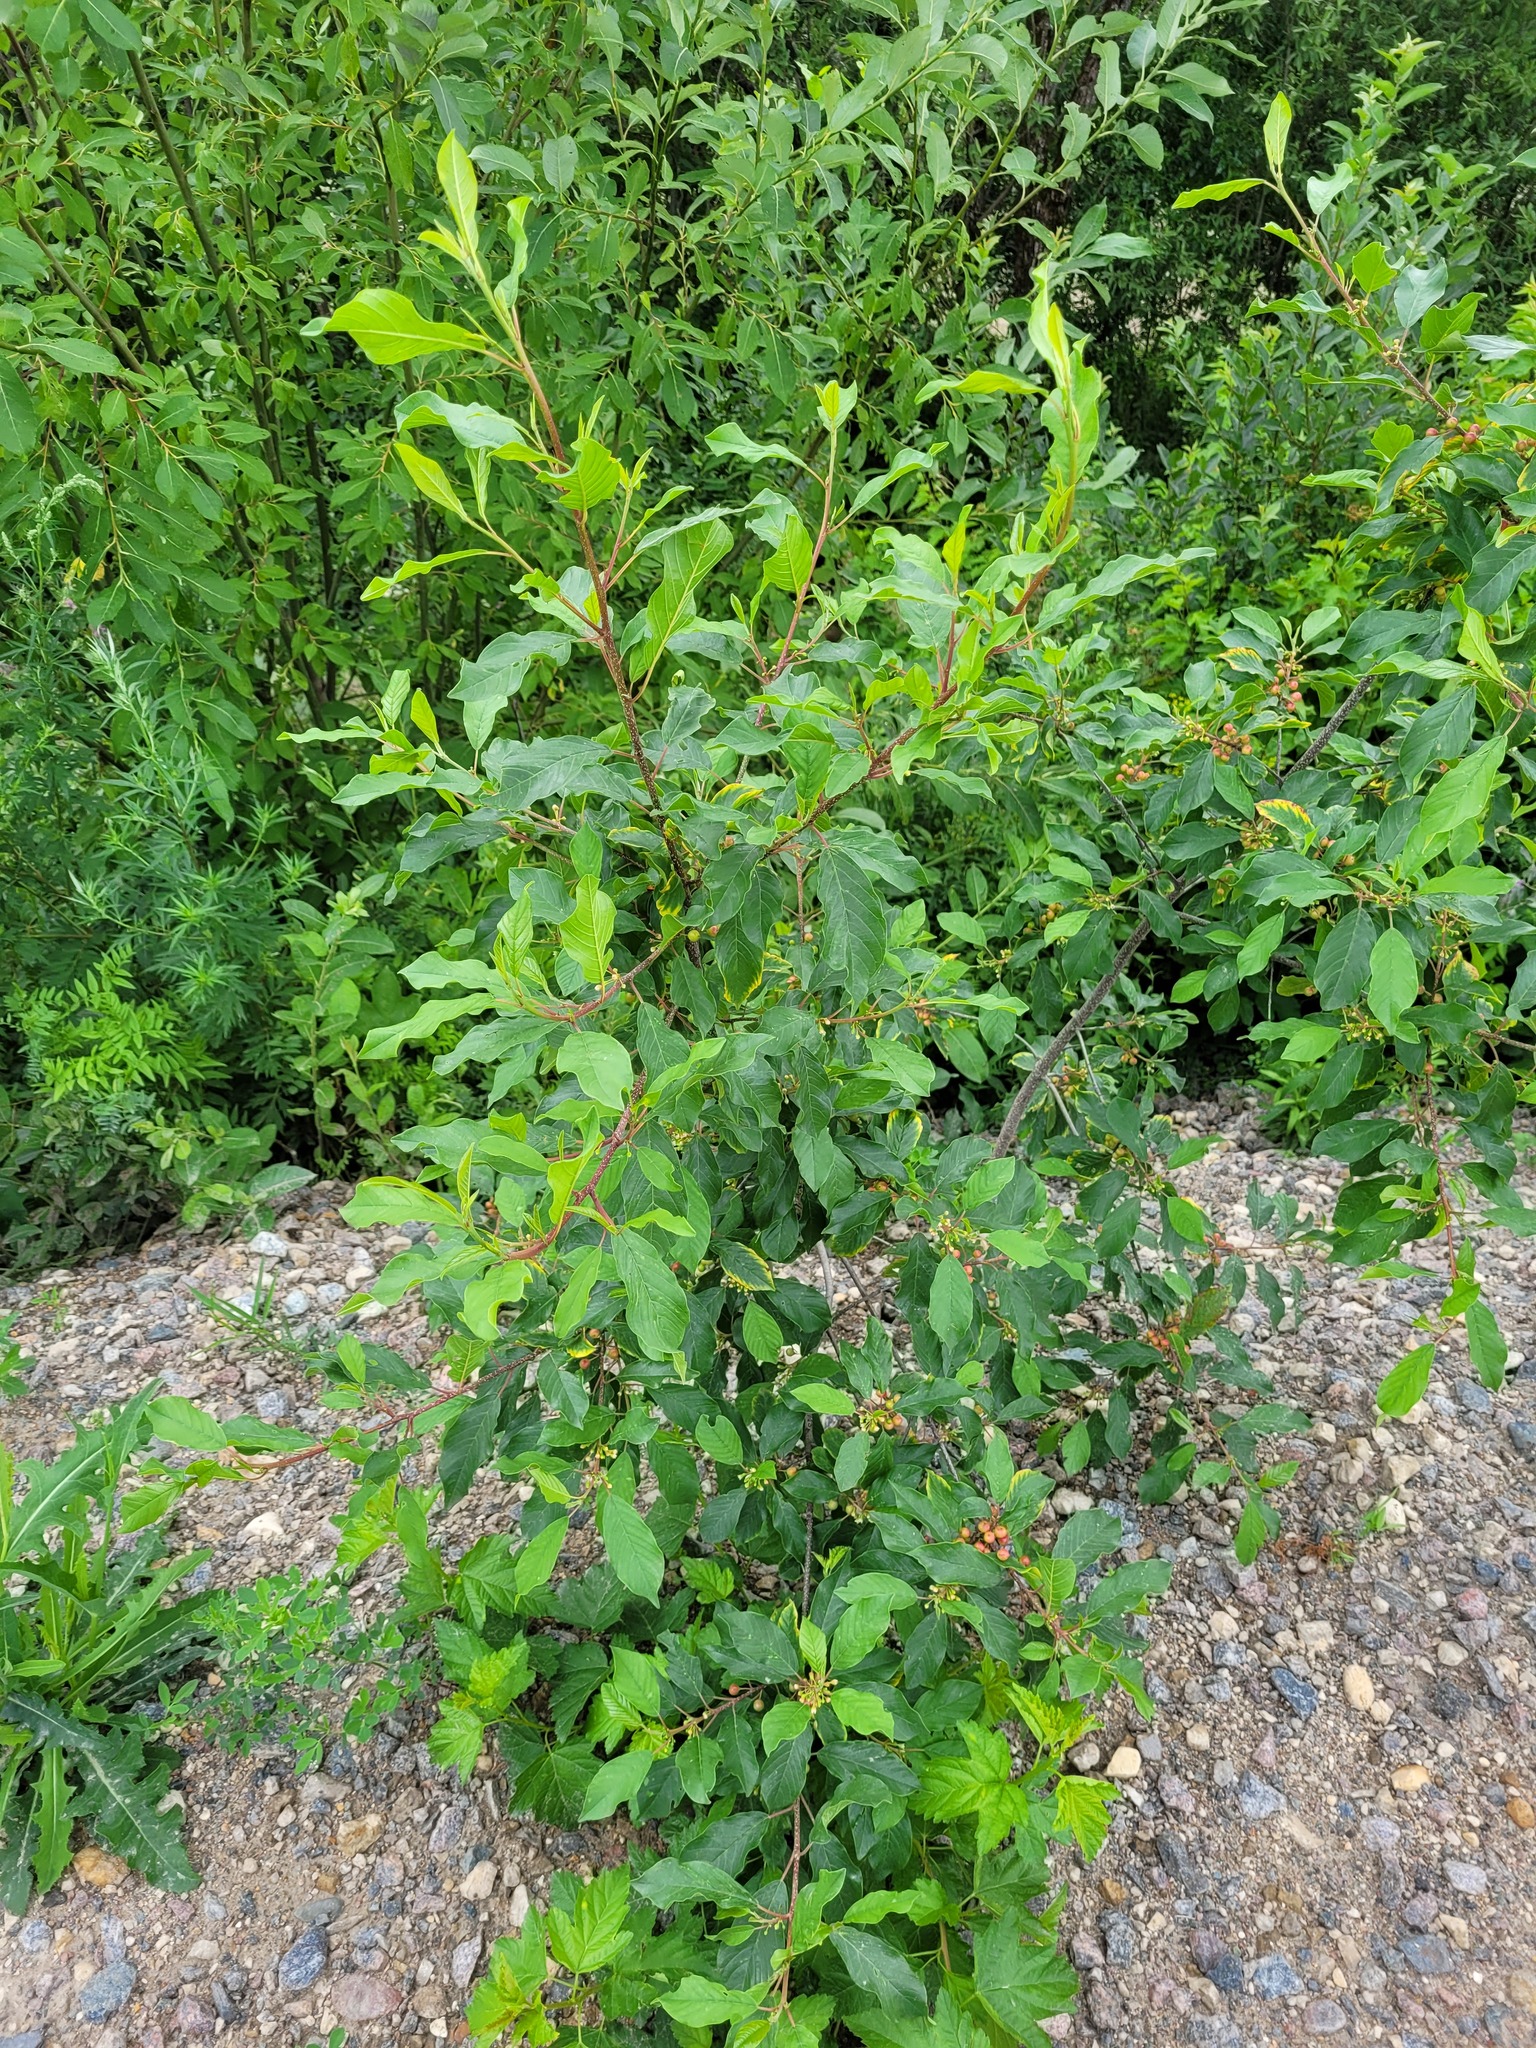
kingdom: Plantae
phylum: Tracheophyta
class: Magnoliopsida
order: Rosales
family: Rhamnaceae
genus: Frangula
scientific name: Frangula alnus
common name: Alder buckthorn
